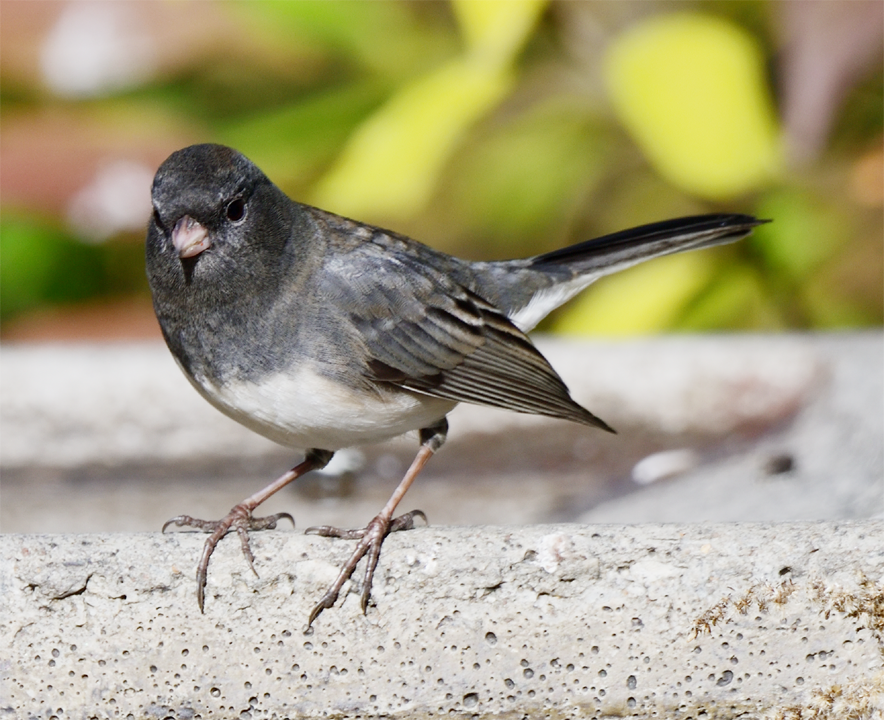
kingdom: Animalia
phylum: Chordata
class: Aves
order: Passeriformes
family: Passerellidae
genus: Junco
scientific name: Junco hyemalis
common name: Dark-eyed junco
